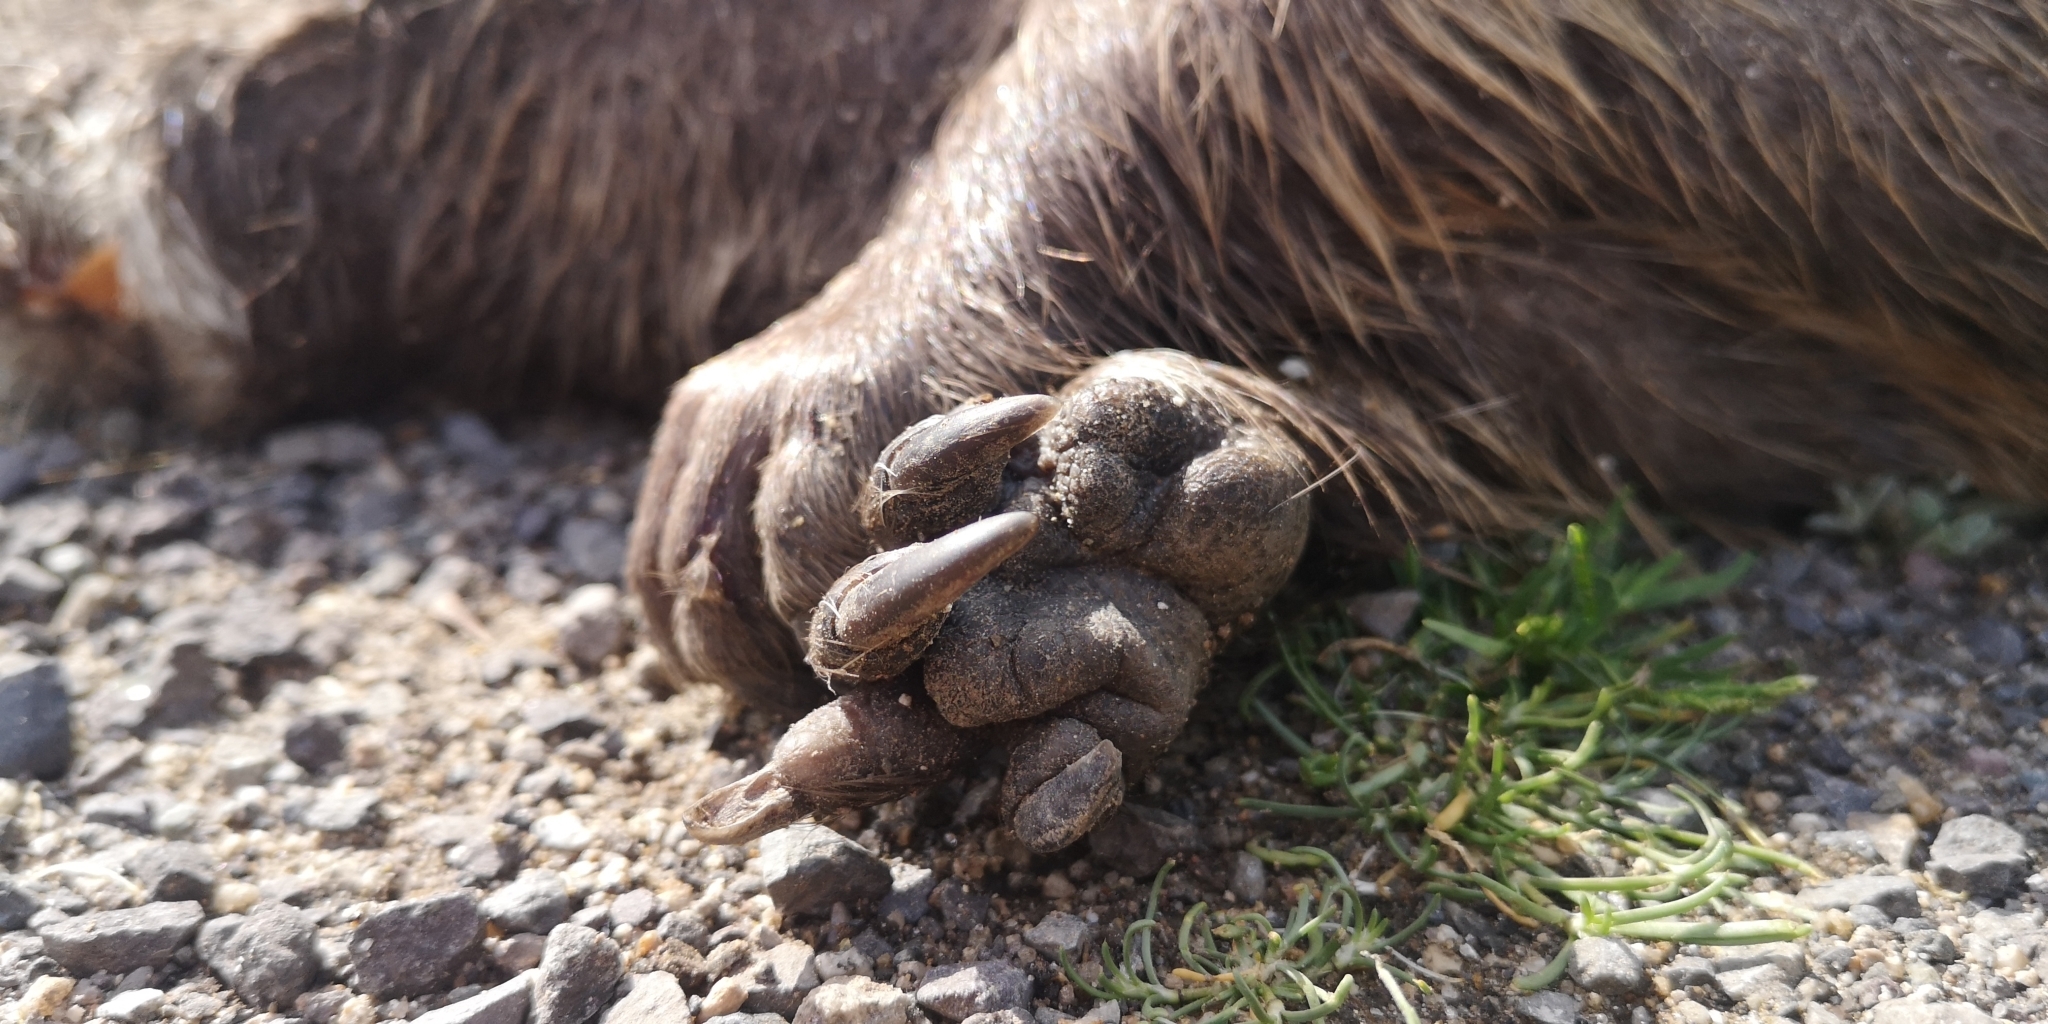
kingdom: Animalia
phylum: Chordata
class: Mammalia
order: Rodentia
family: Myocastoridae
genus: Myocastor
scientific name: Myocastor coypus
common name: Coypu
